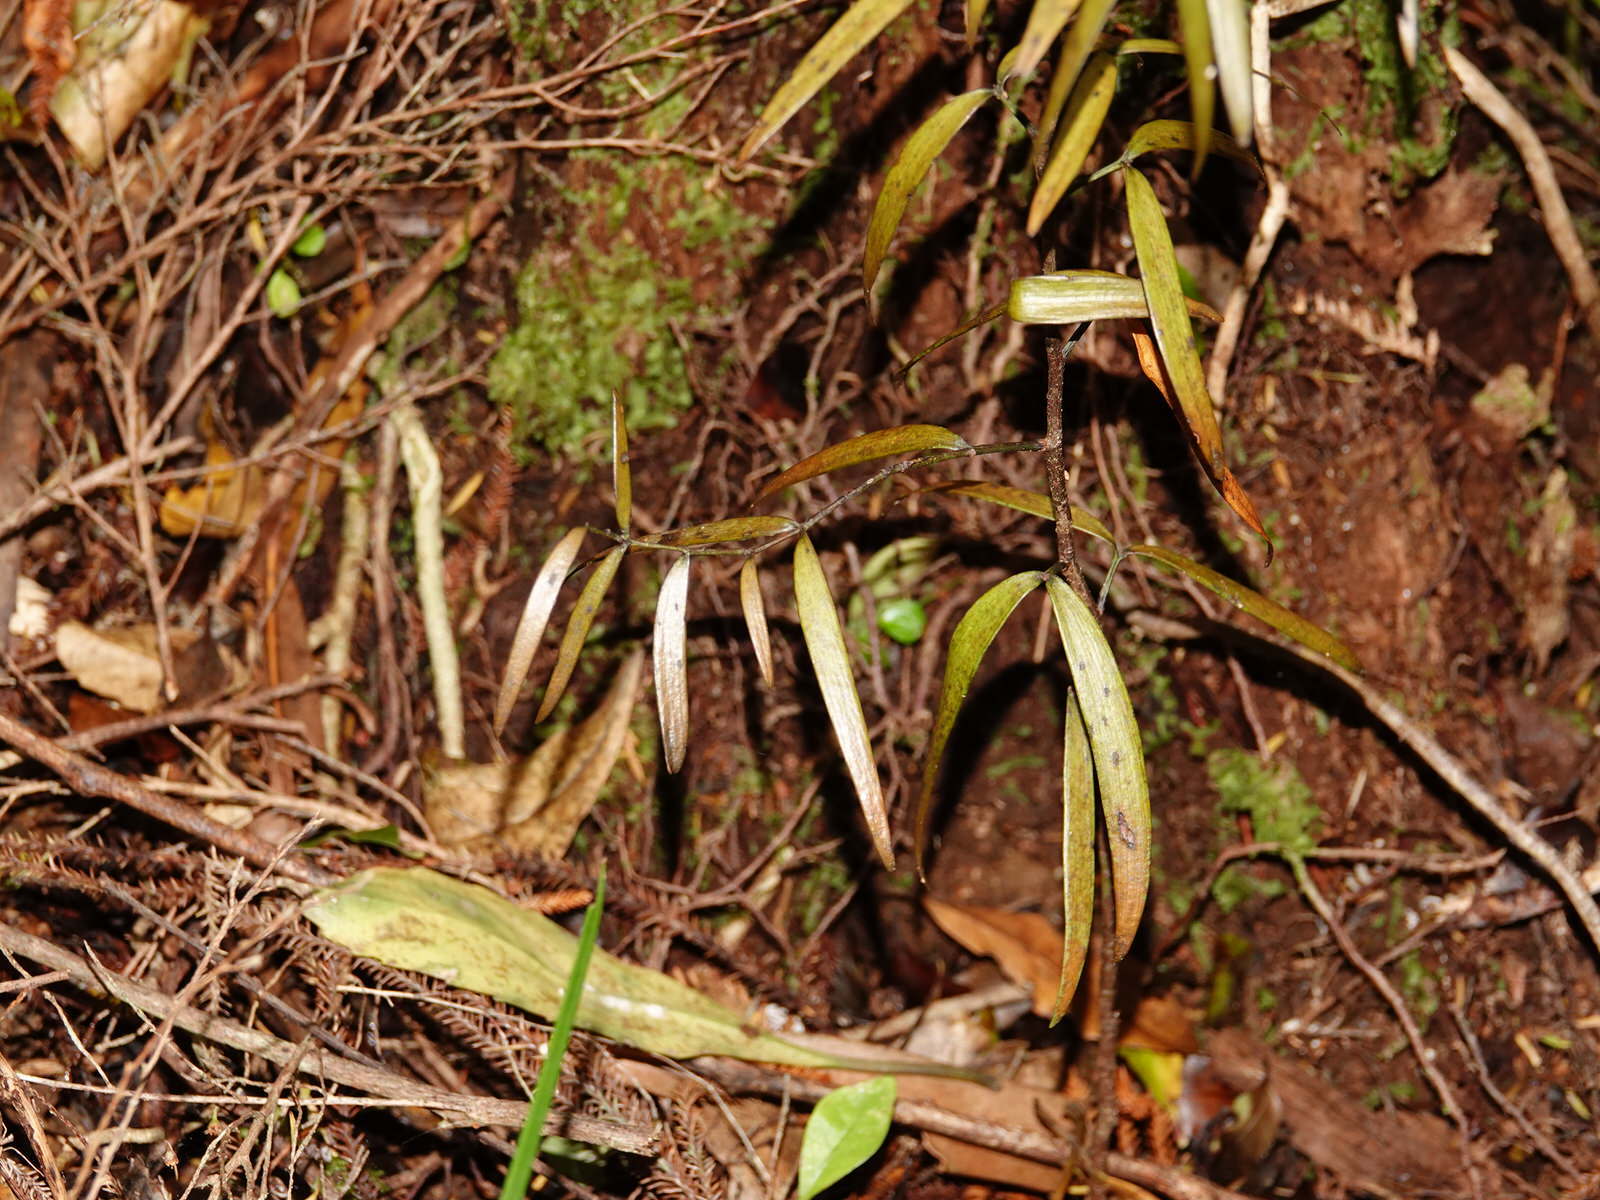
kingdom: Plantae
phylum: Tracheophyta
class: Pinopsida
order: Pinales
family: Araucariaceae
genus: Agathis
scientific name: Agathis australis
